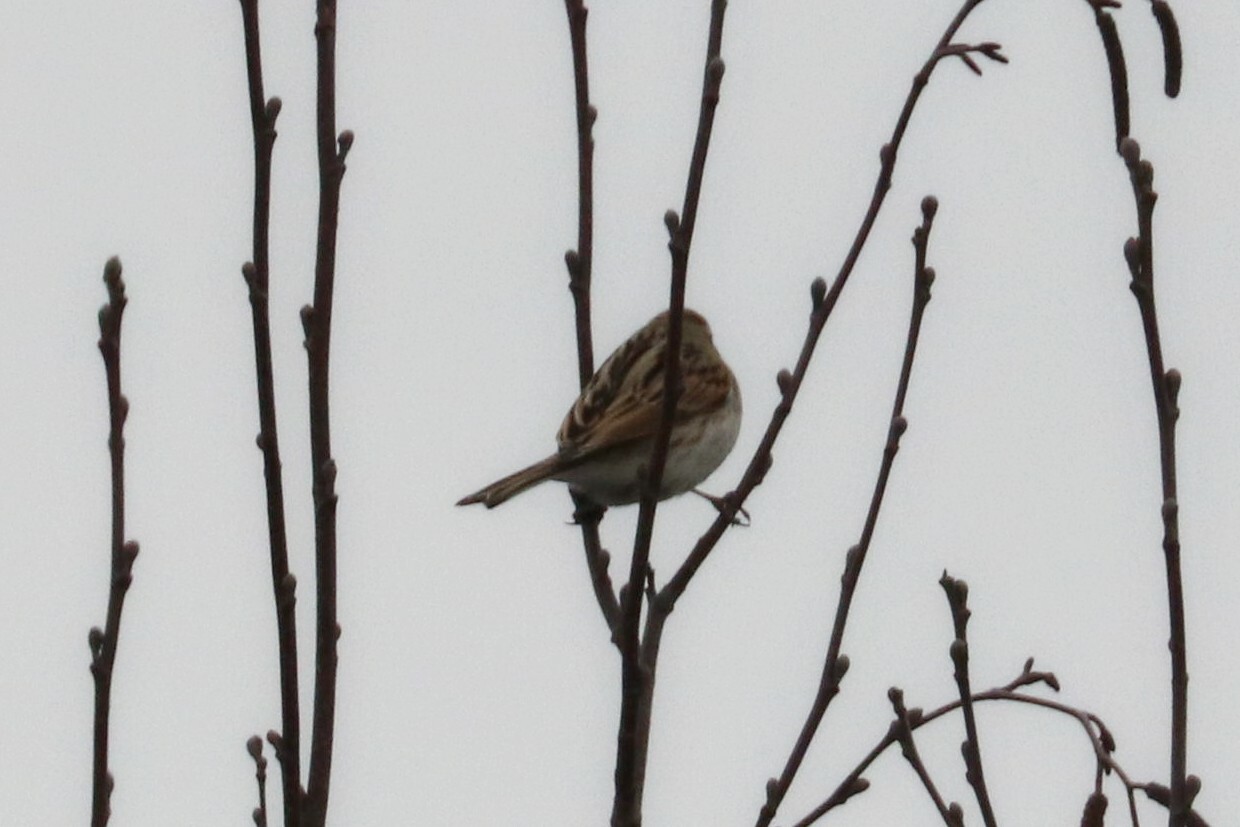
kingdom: Animalia
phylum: Chordata
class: Aves
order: Passeriformes
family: Emberizidae
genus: Emberiza
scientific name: Emberiza schoeniclus
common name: Reed bunting
